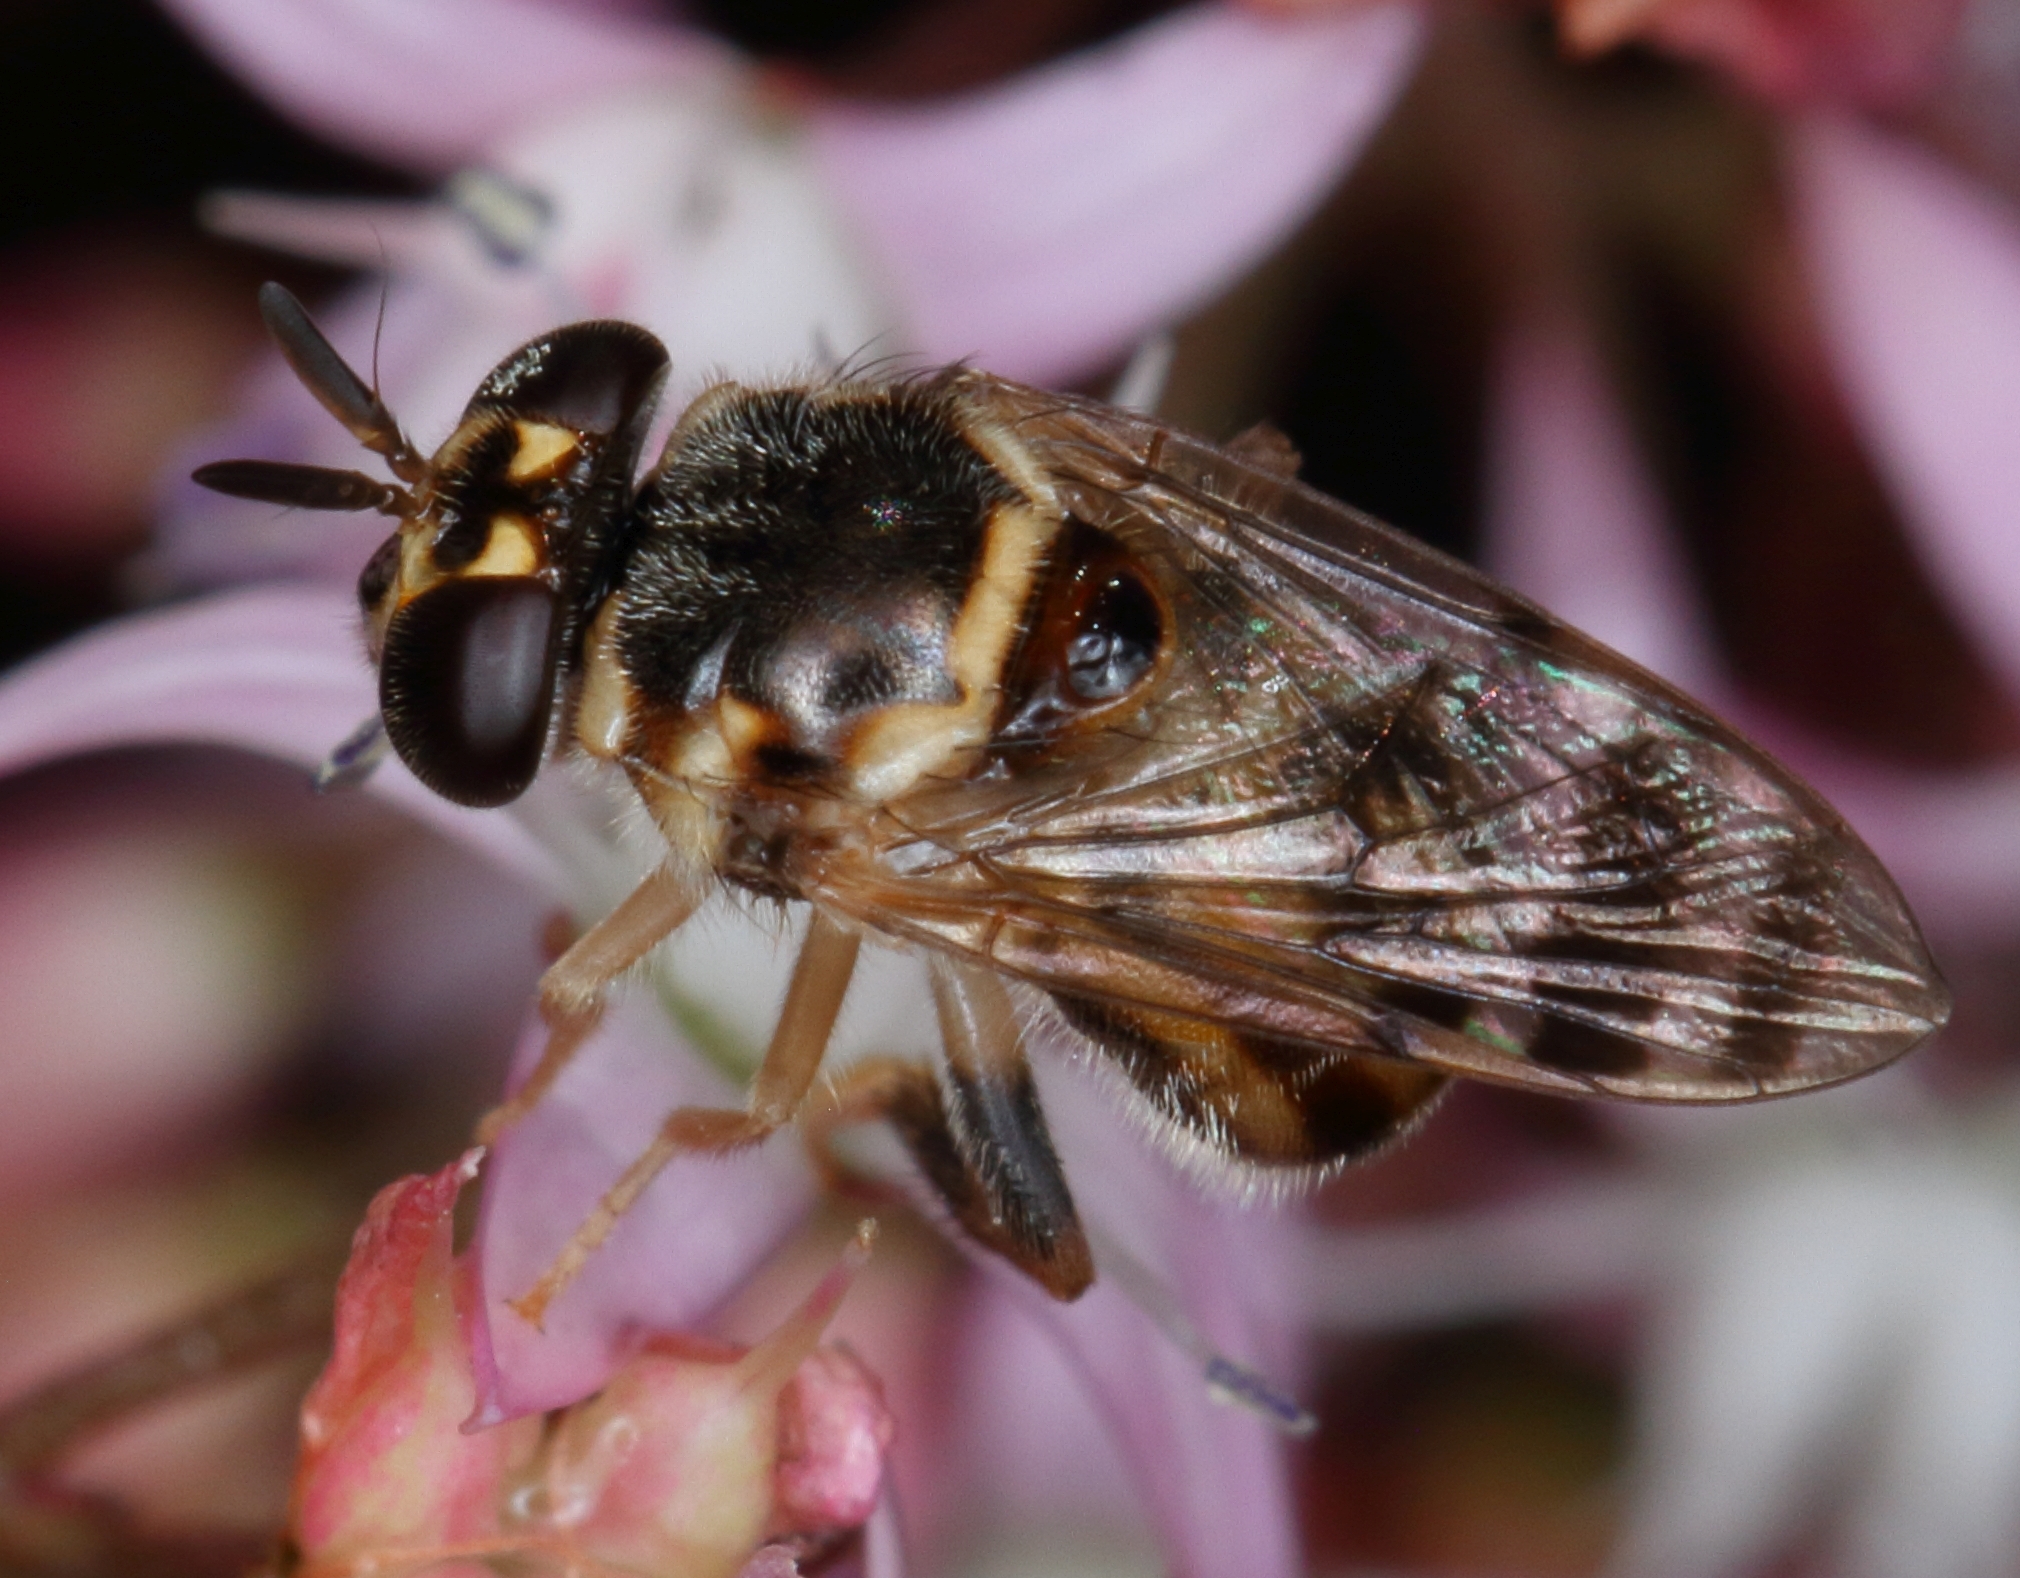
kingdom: Animalia
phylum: Arthropoda
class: Insecta
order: Diptera
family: Syrphidae
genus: Graptomyza
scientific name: Graptomyza signata
